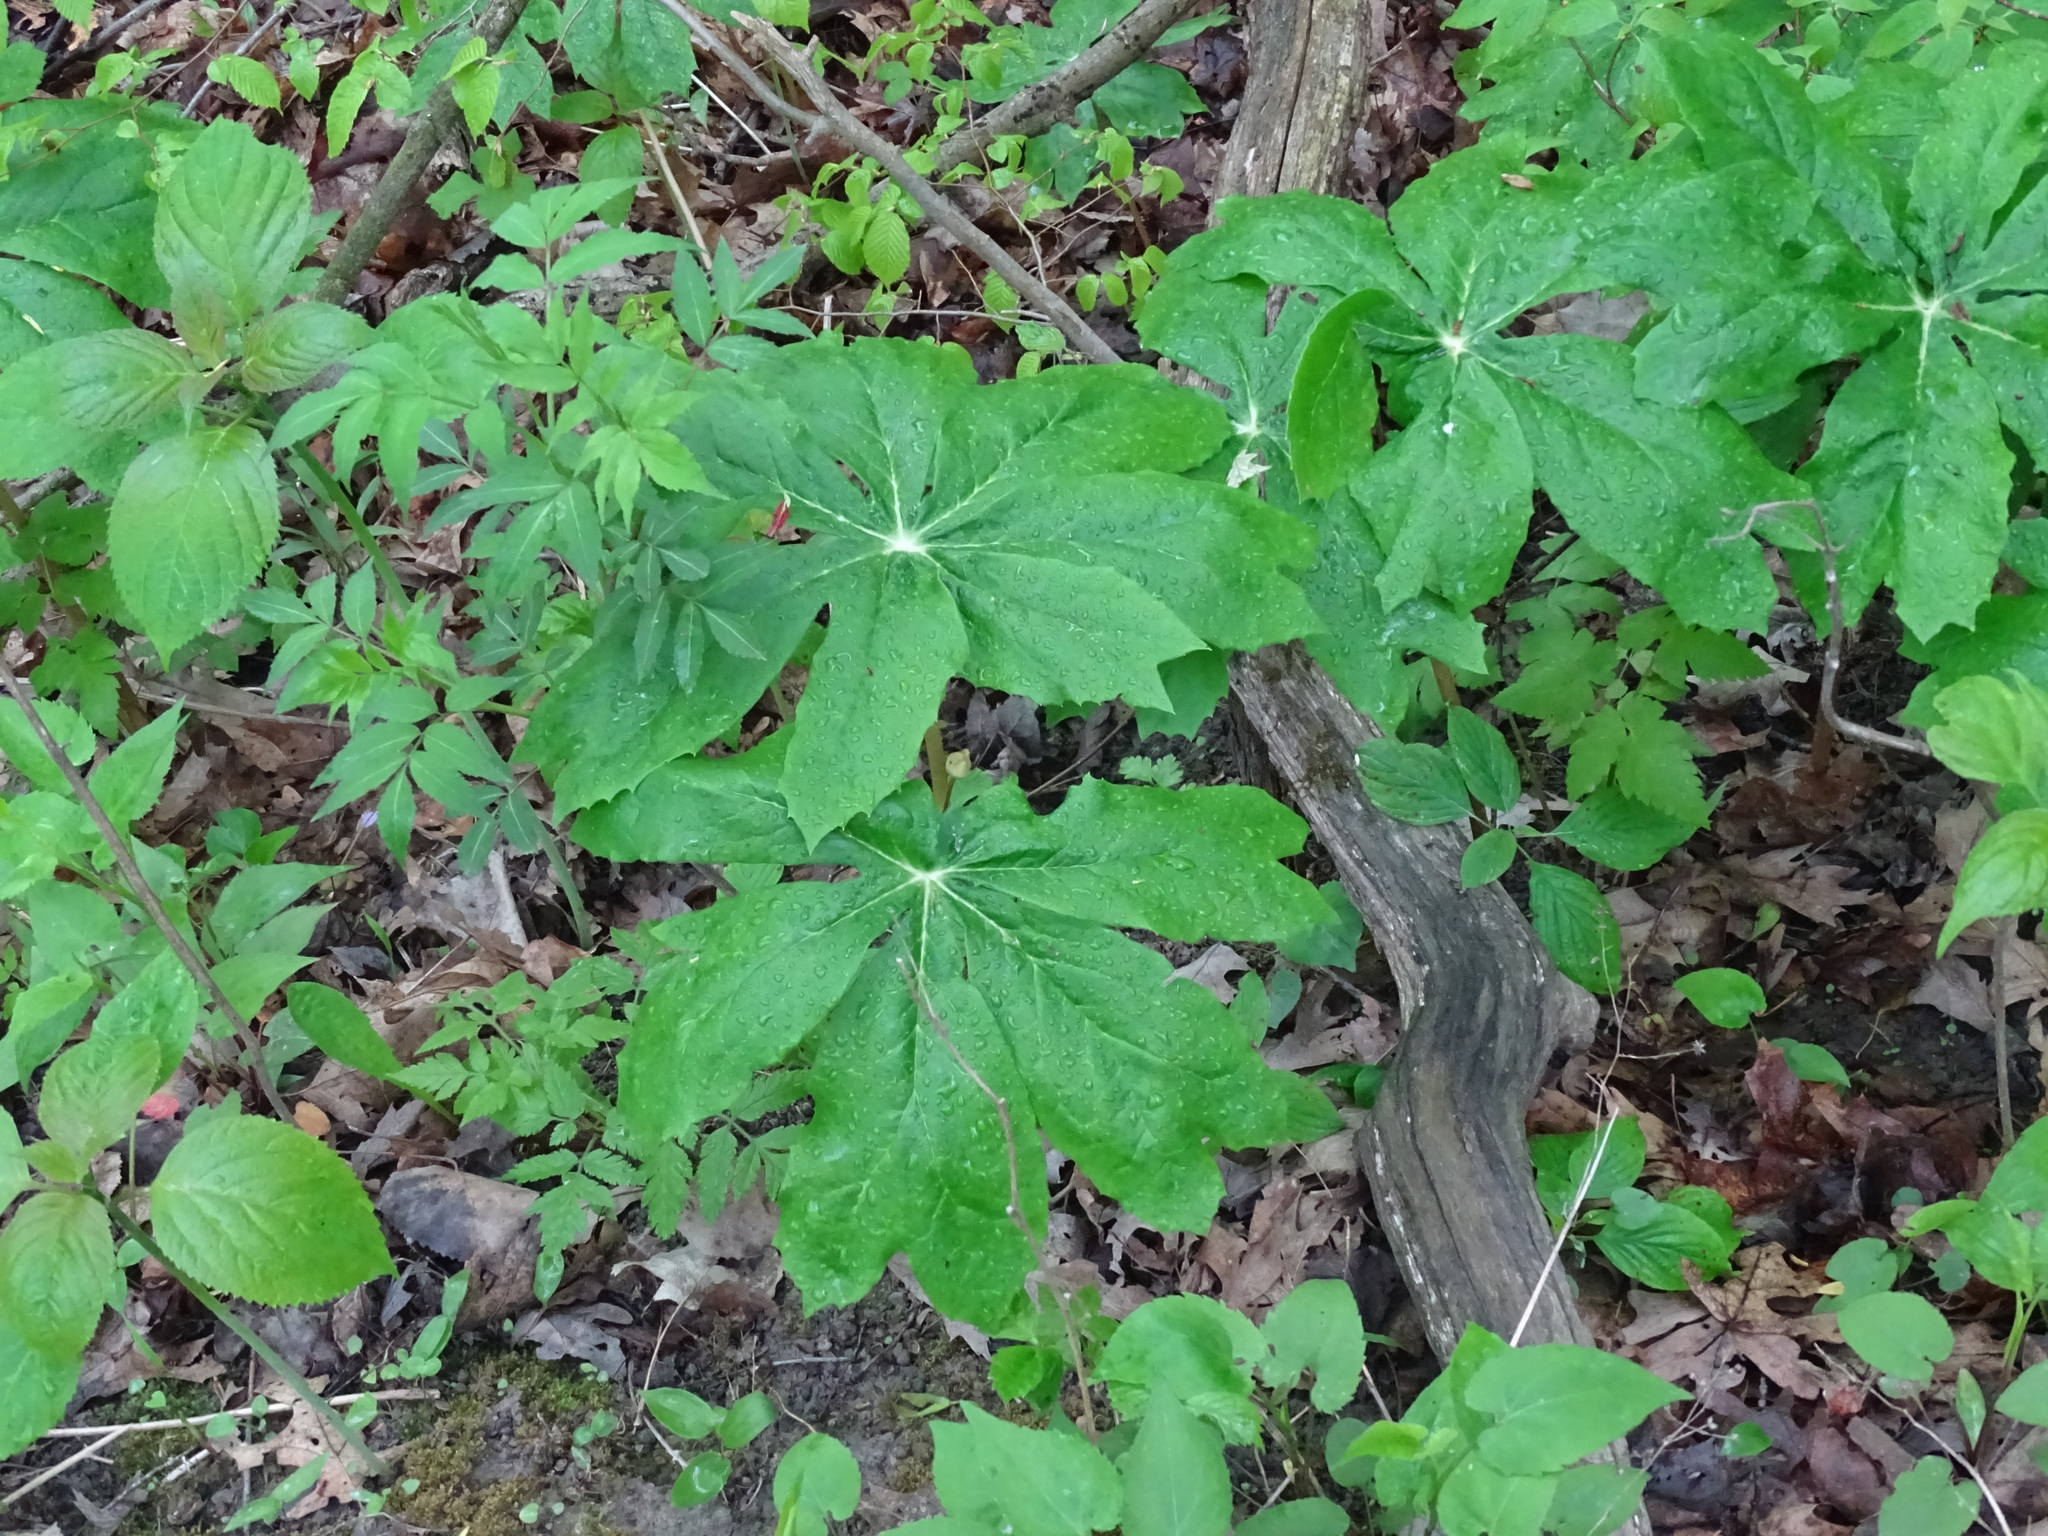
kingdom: Plantae
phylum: Tracheophyta
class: Magnoliopsida
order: Ranunculales
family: Berberidaceae
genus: Podophyllum
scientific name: Podophyllum peltatum
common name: Wild mandrake
